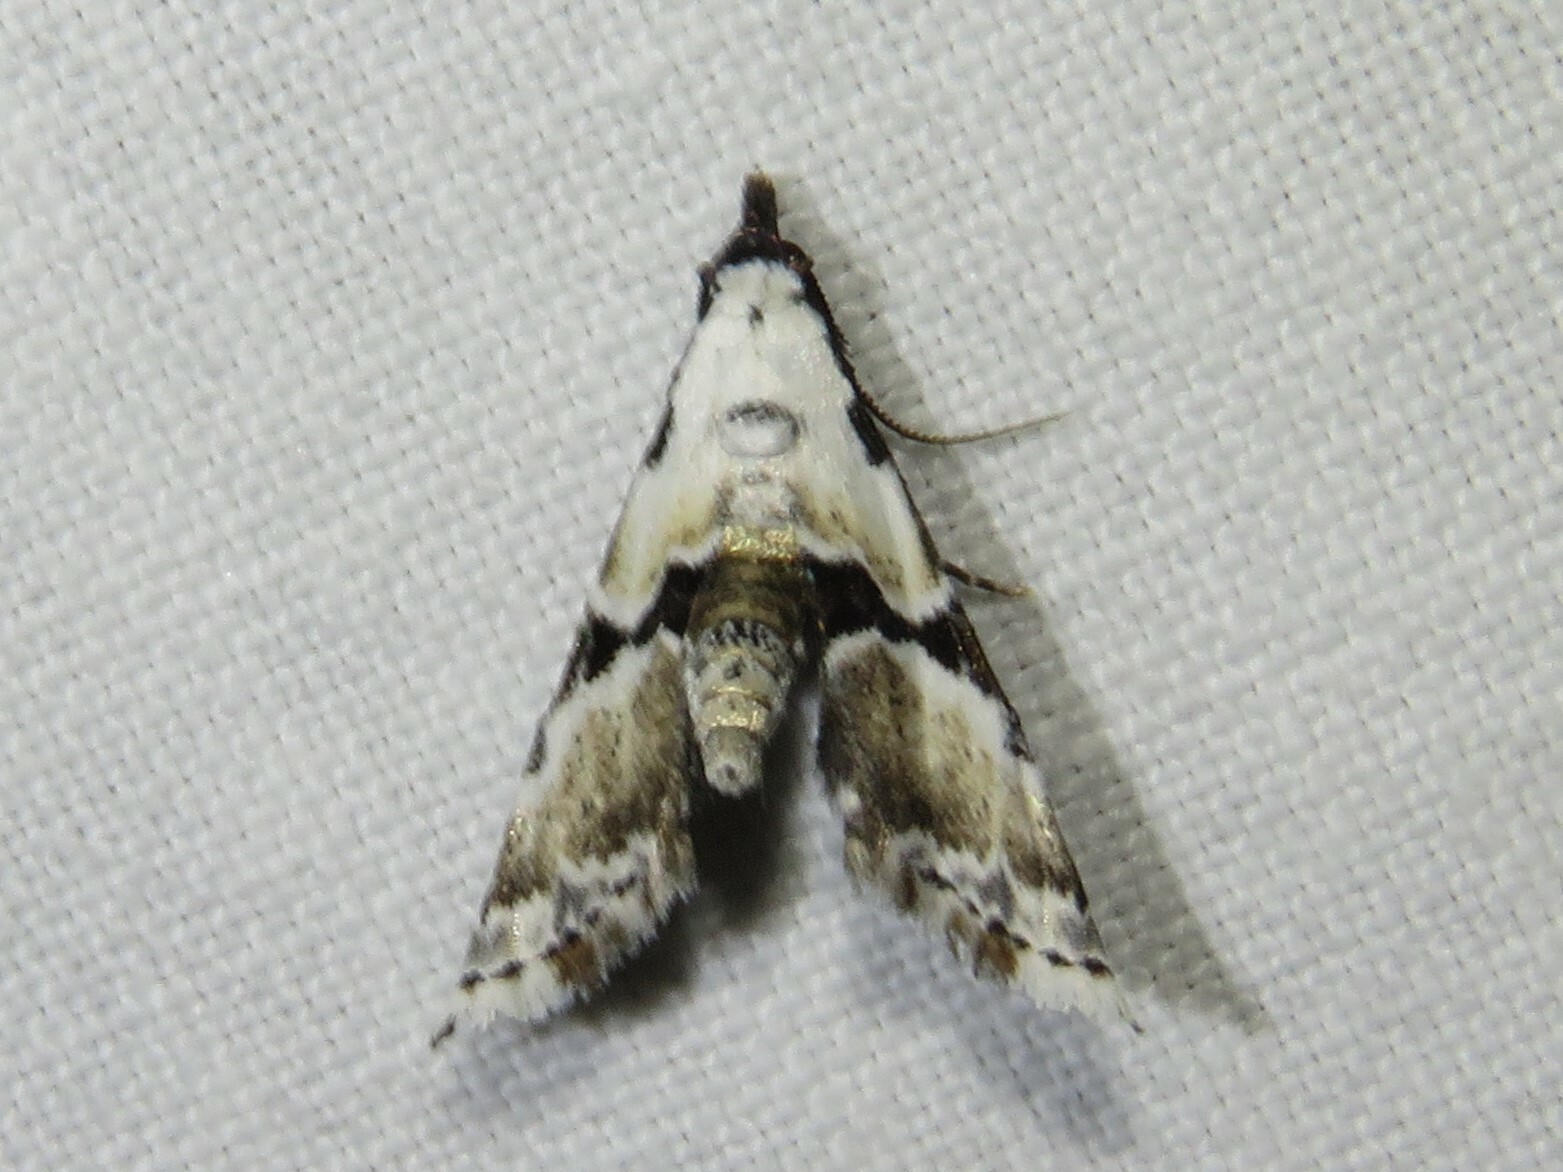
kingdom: Animalia
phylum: Arthropoda
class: Insecta
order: Lepidoptera
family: Noctuidae
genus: Nigetia
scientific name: Nigetia formosalis
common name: Thin-winged owlet
